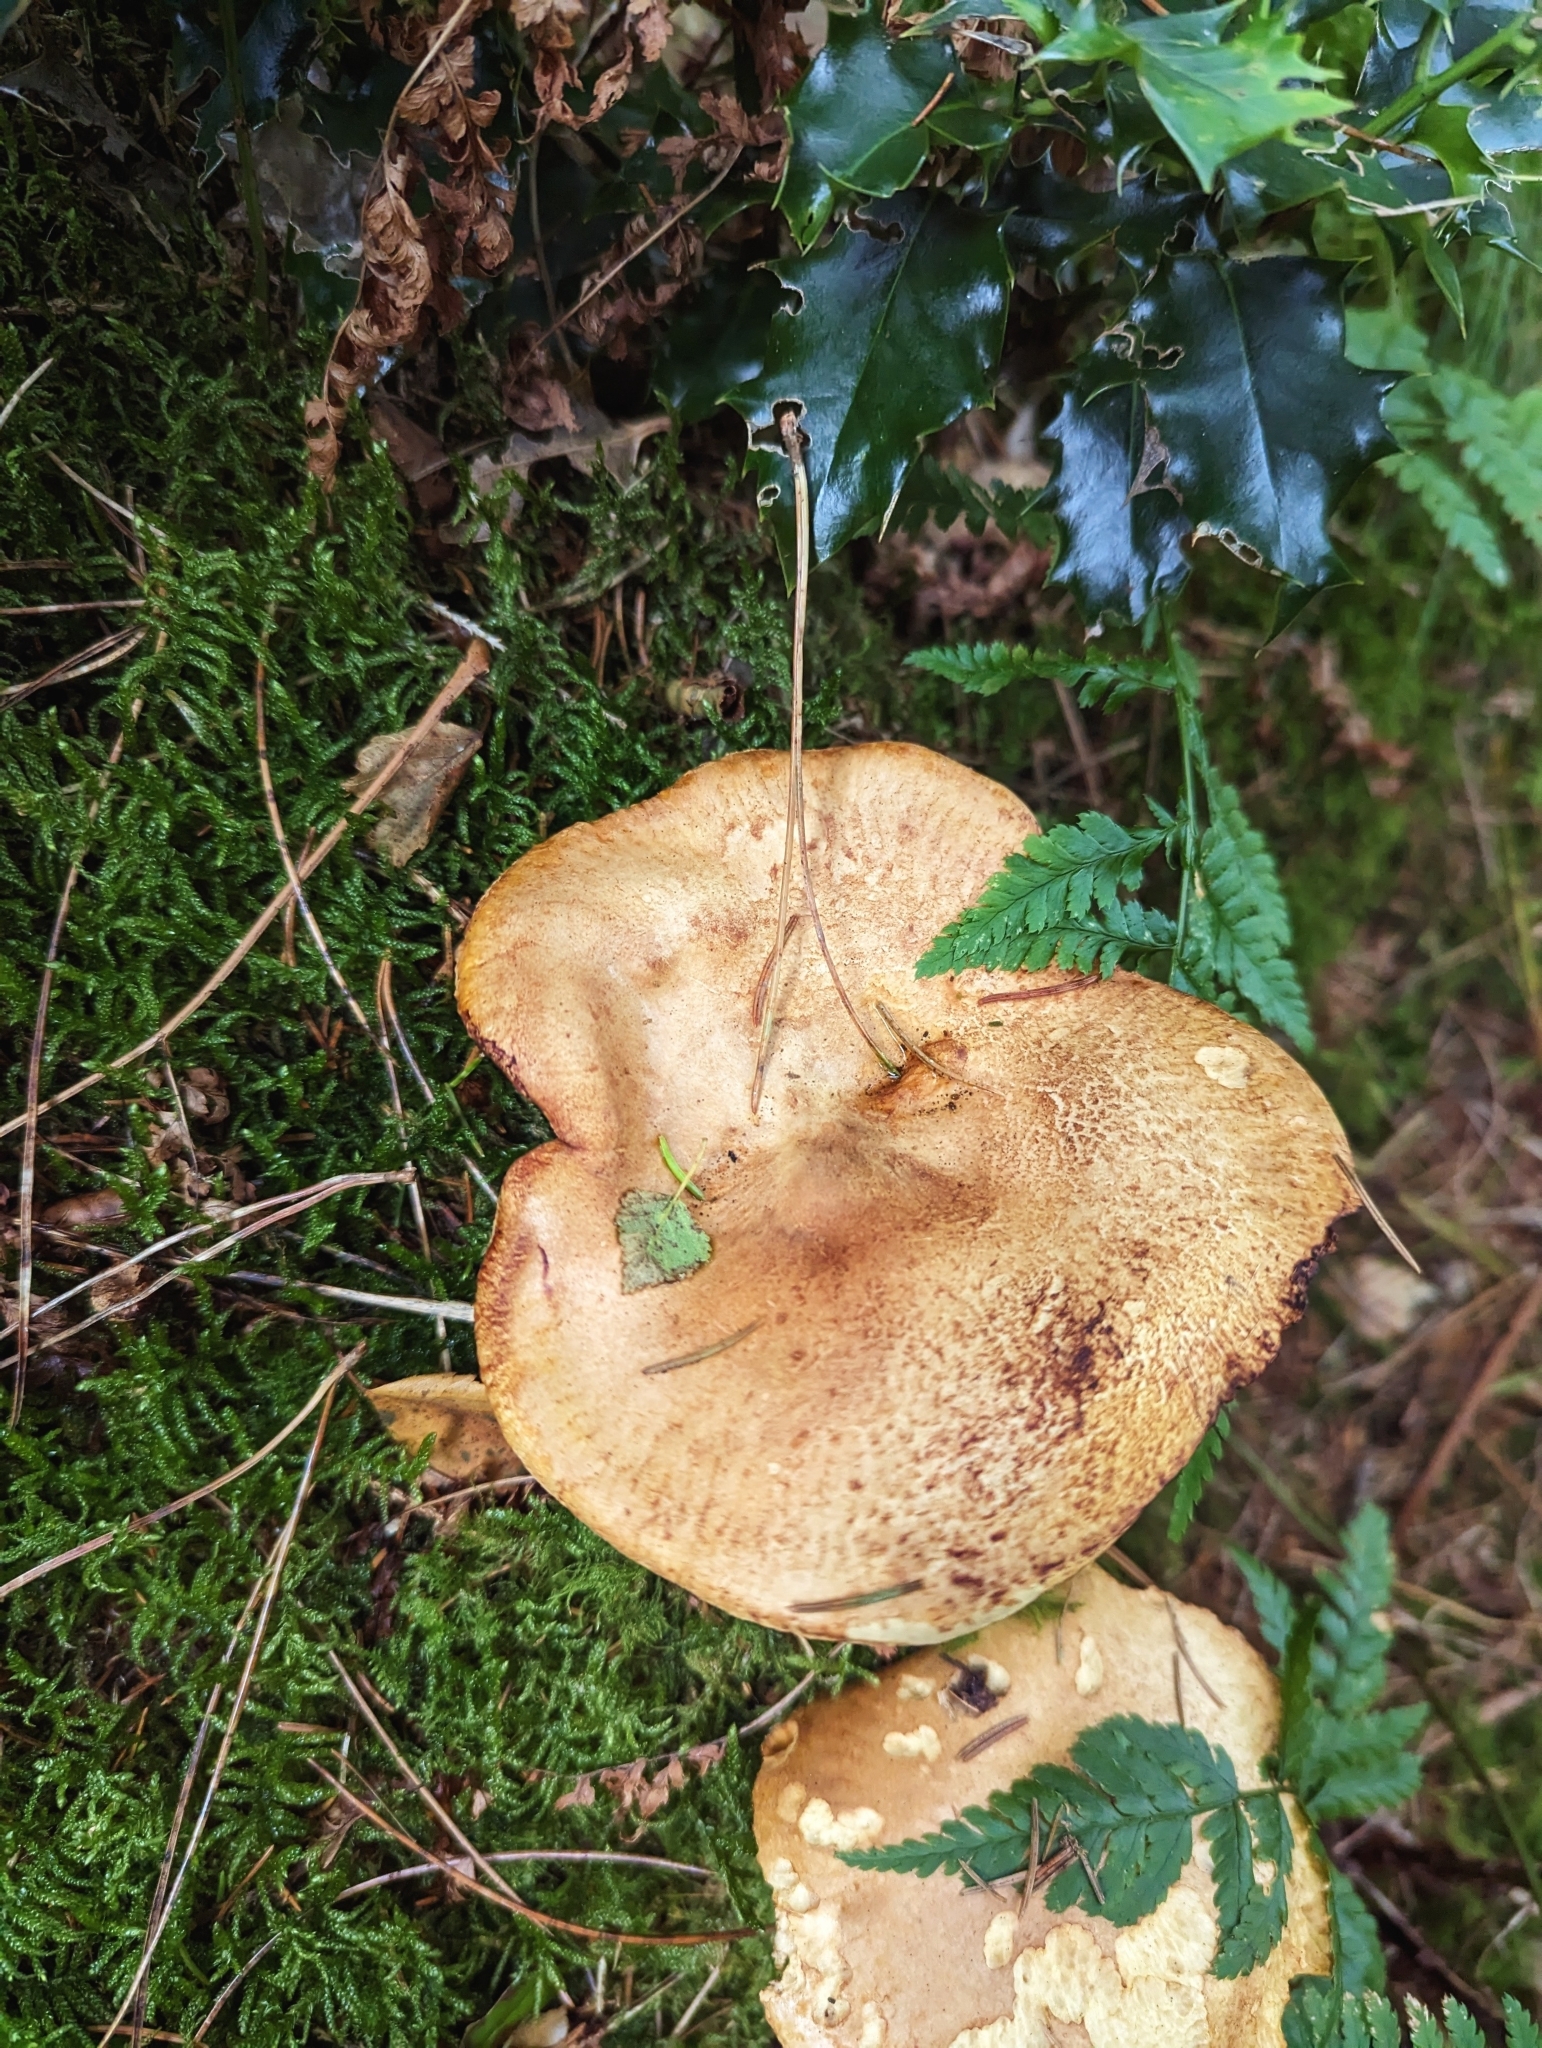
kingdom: Fungi
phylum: Basidiomycota
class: Agaricomycetes
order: Boletales
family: Paxillaceae
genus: Paxillus
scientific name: Paxillus involutus
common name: Brown roll rim
